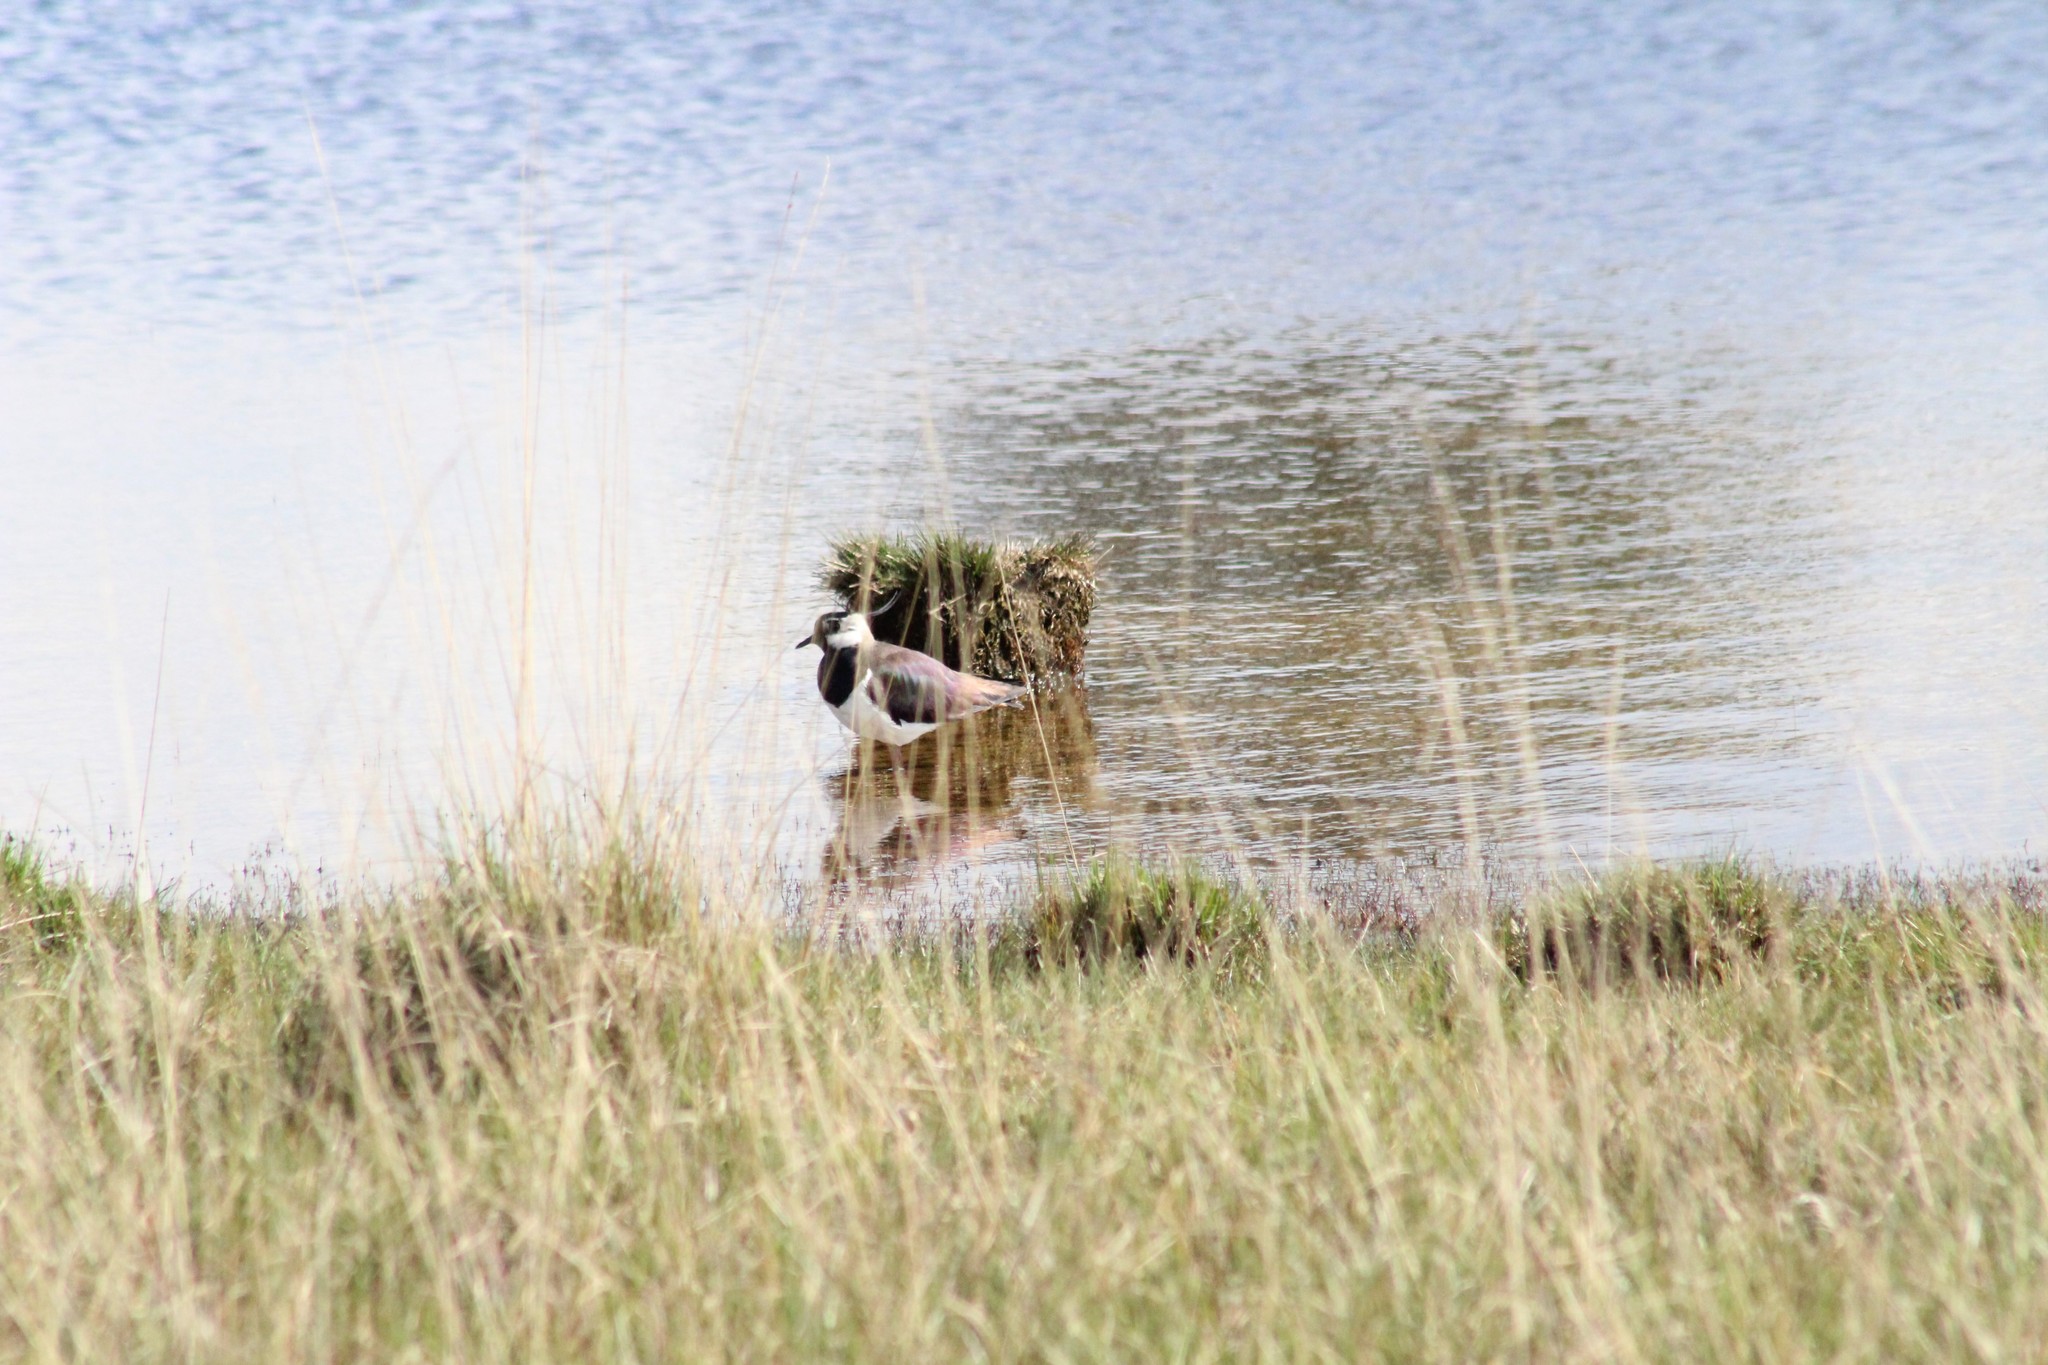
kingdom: Animalia
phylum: Chordata
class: Aves
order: Charadriiformes
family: Charadriidae
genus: Vanellus
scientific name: Vanellus vanellus
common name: Northern lapwing
